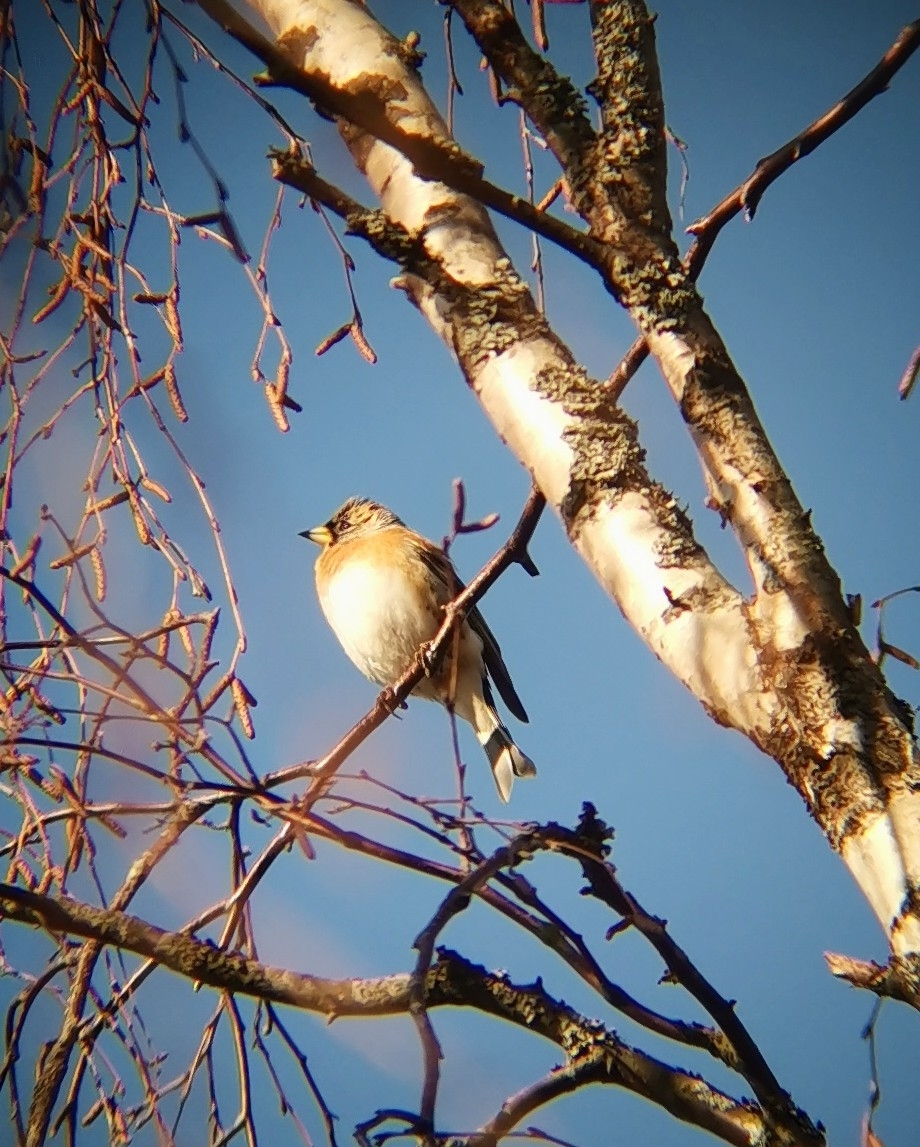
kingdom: Animalia
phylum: Chordata
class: Aves
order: Passeriformes
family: Fringillidae
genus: Fringilla
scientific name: Fringilla montifringilla
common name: Brambling
